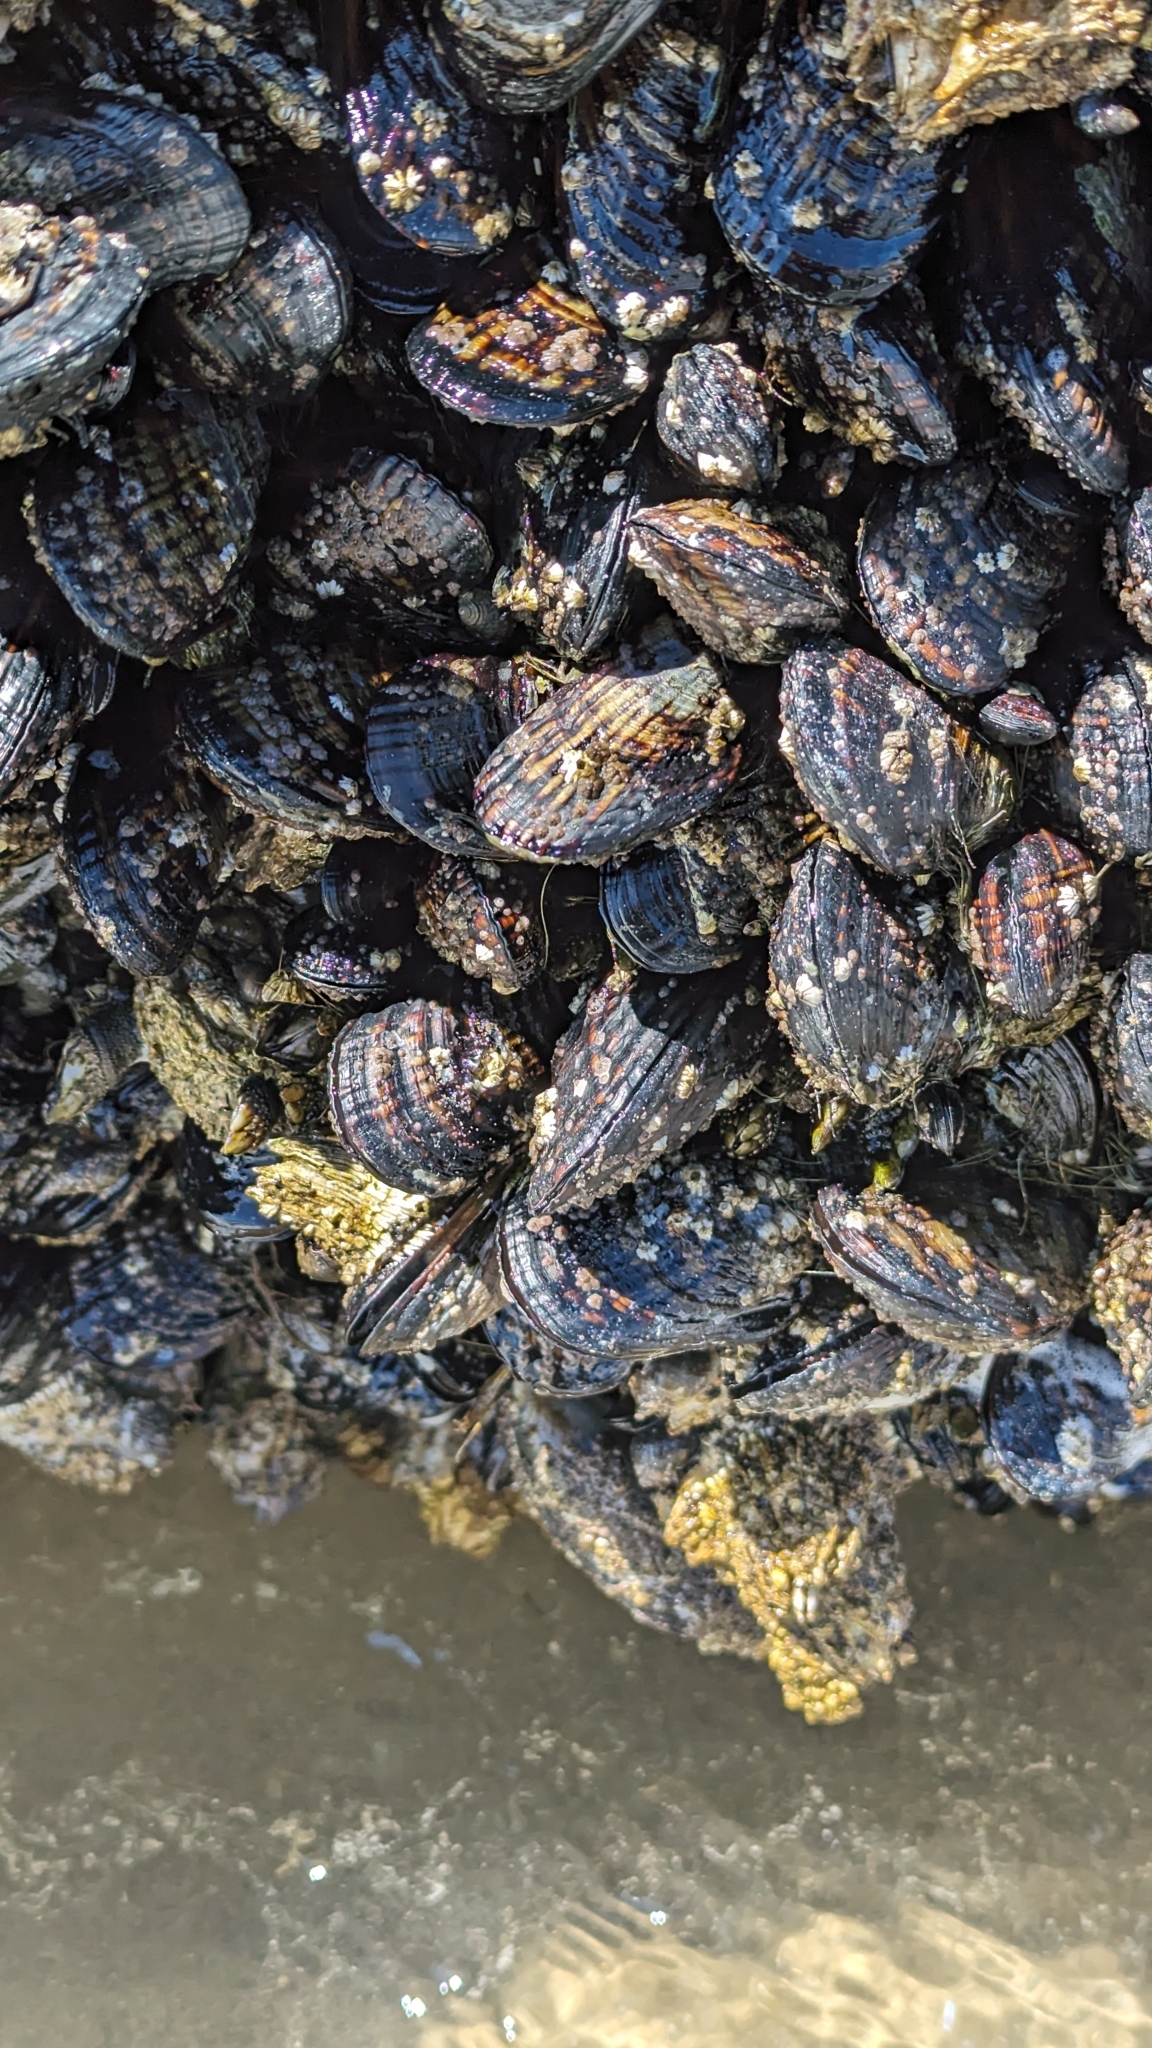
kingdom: Animalia
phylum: Mollusca
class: Bivalvia
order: Mytilida
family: Mytilidae
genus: Mytilus
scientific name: Mytilus californianus
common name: California mussel
